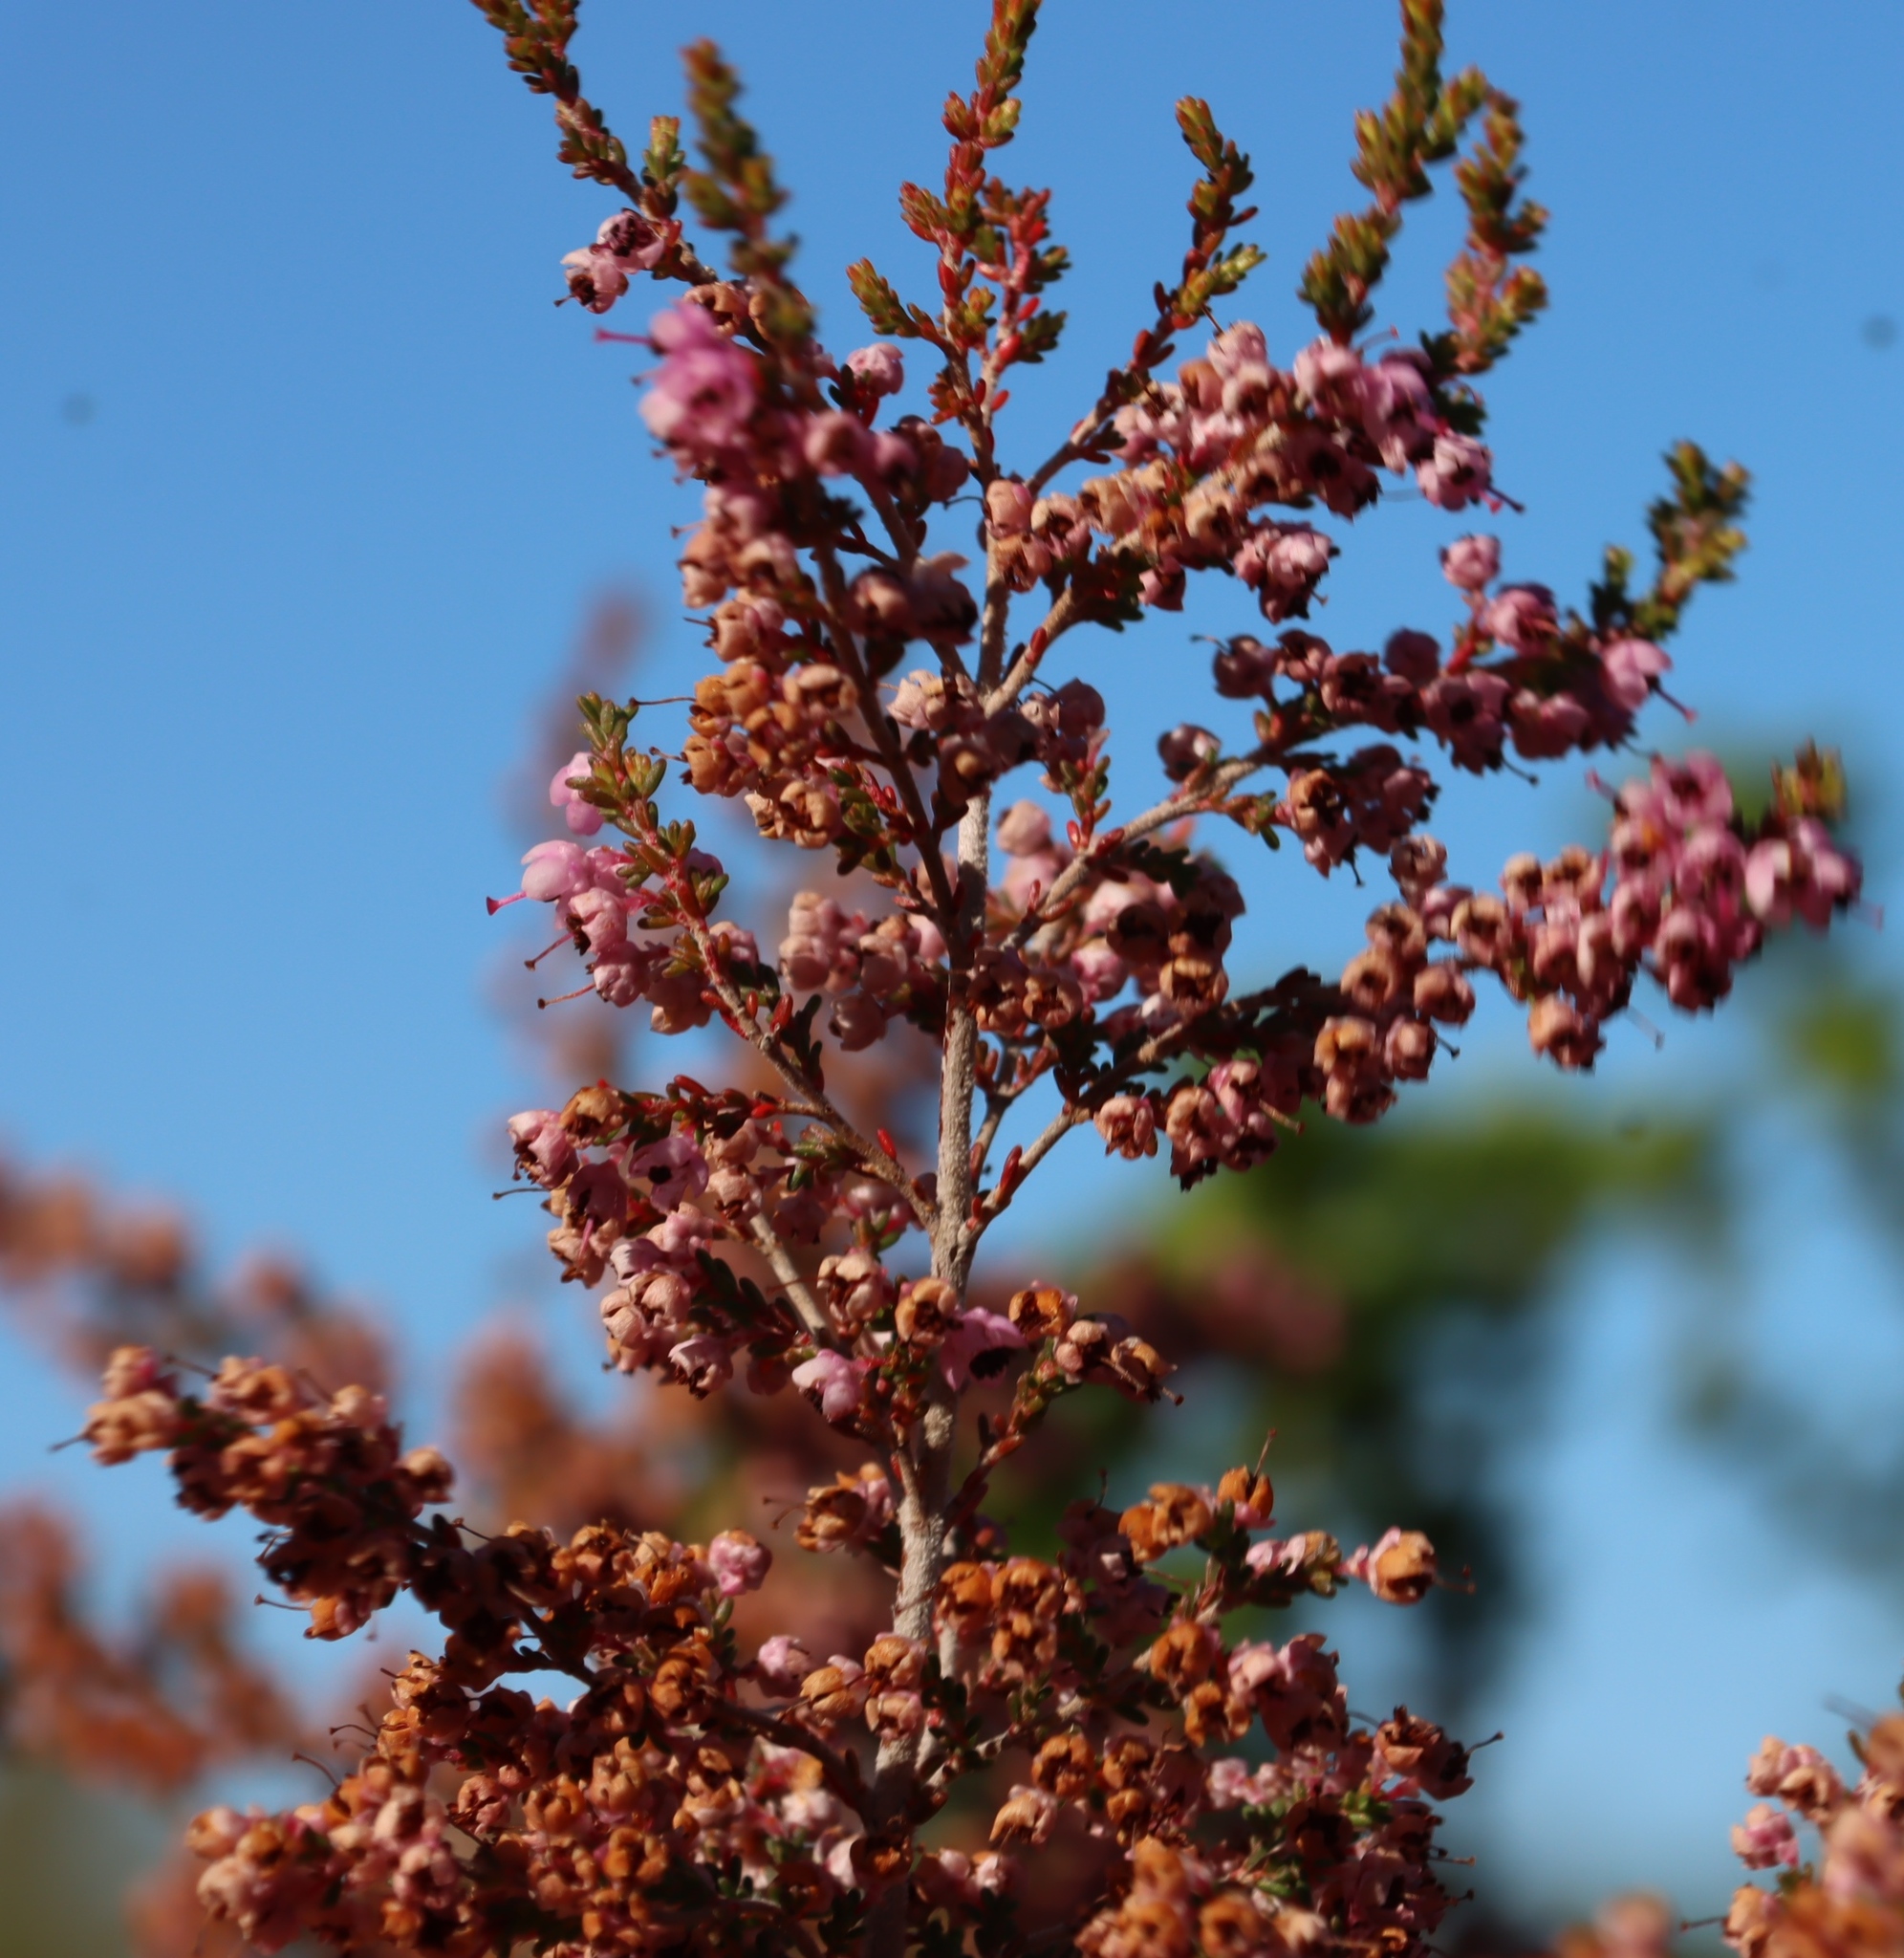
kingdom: Plantae
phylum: Tracheophyta
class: Magnoliopsida
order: Ericales
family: Ericaceae
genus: Erica
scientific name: Erica sparsa
